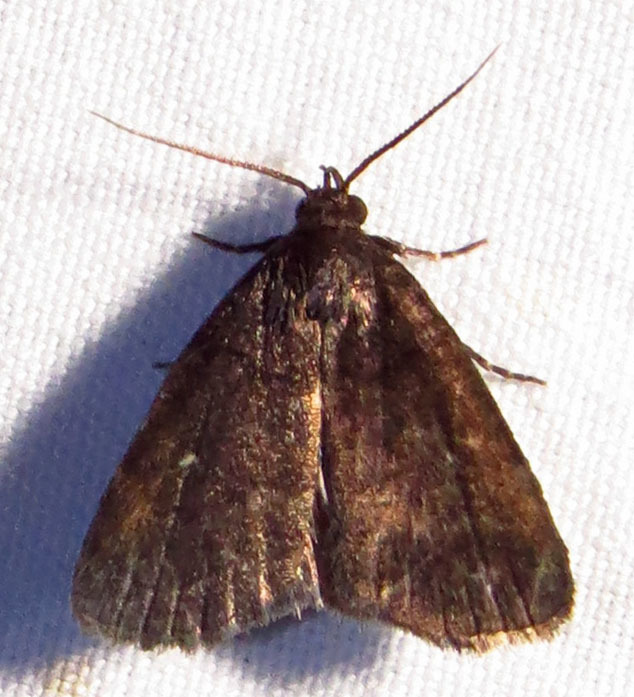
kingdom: Animalia
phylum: Arthropoda
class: Insecta
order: Lepidoptera
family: Erebidae
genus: Idia
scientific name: Idia rotundalis
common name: Rotund idia moth
